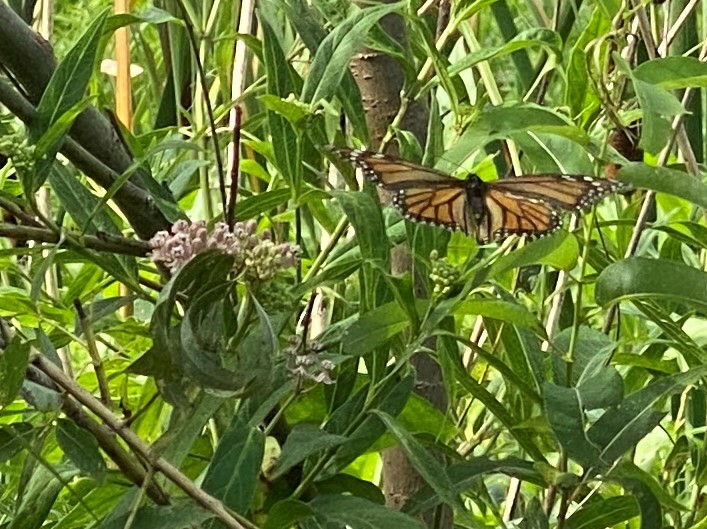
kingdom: Animalia
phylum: Arthropoda
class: Insecta
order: Lepidoptera
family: Nymphalidae
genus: Danaus
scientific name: Danaus plexippus
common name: Monarch
